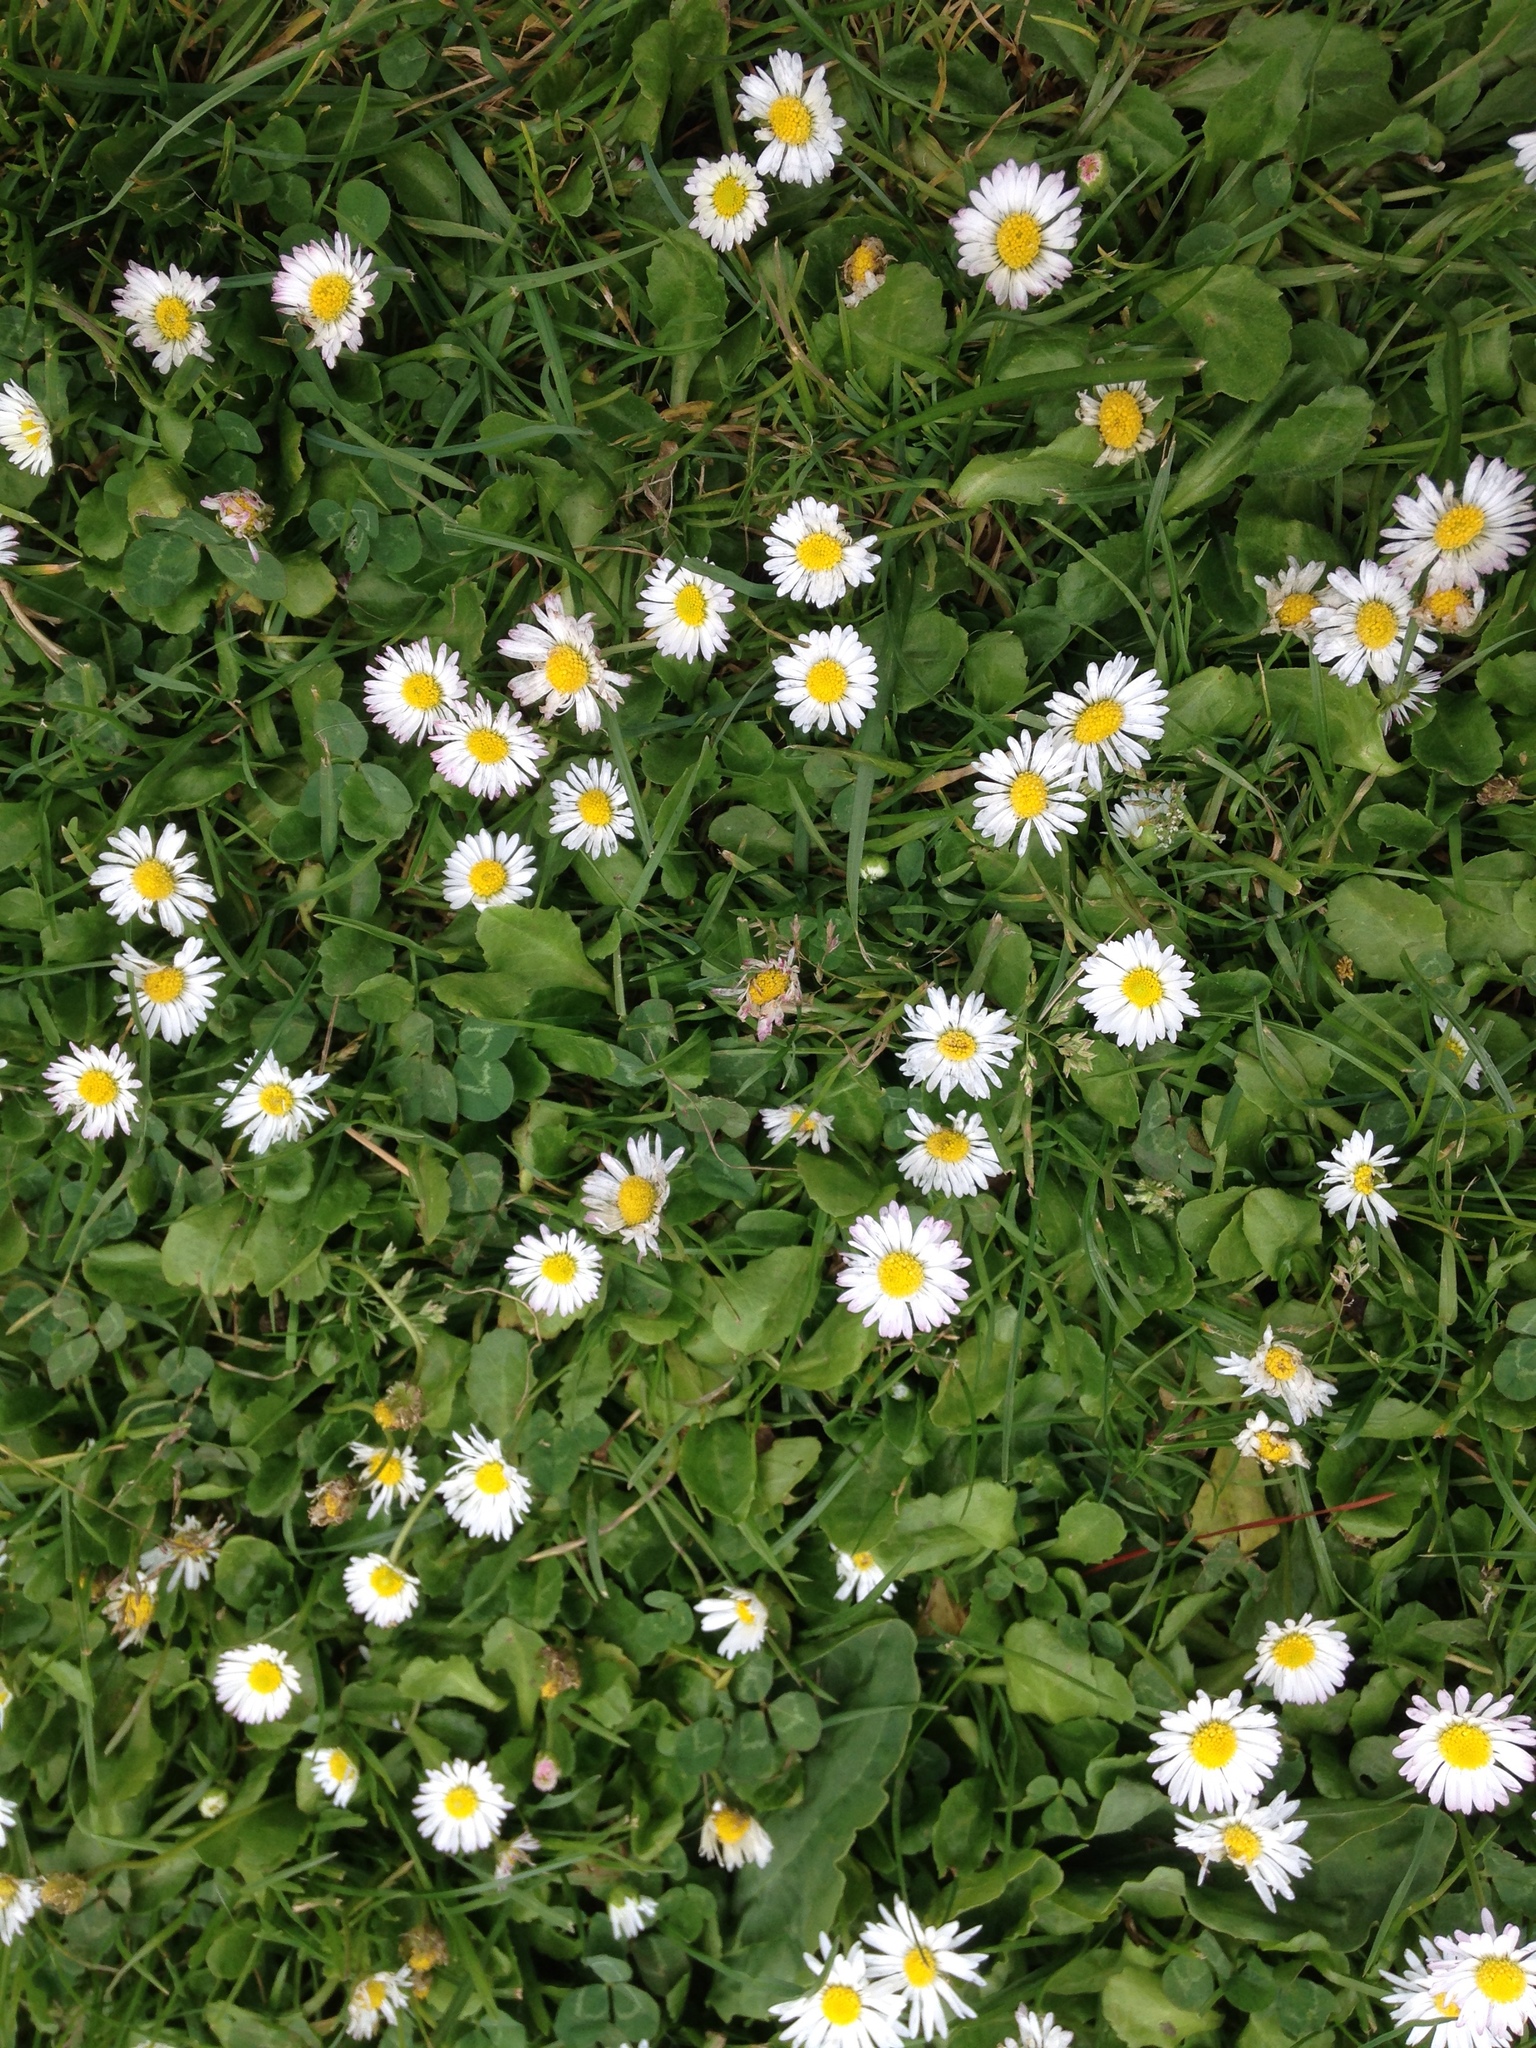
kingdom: Plantae
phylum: Tracheophyta
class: Magnoliopsida
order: Asterales
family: Asteraceae
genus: Bellis
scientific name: Bellis perennis
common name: Lawndaisy
